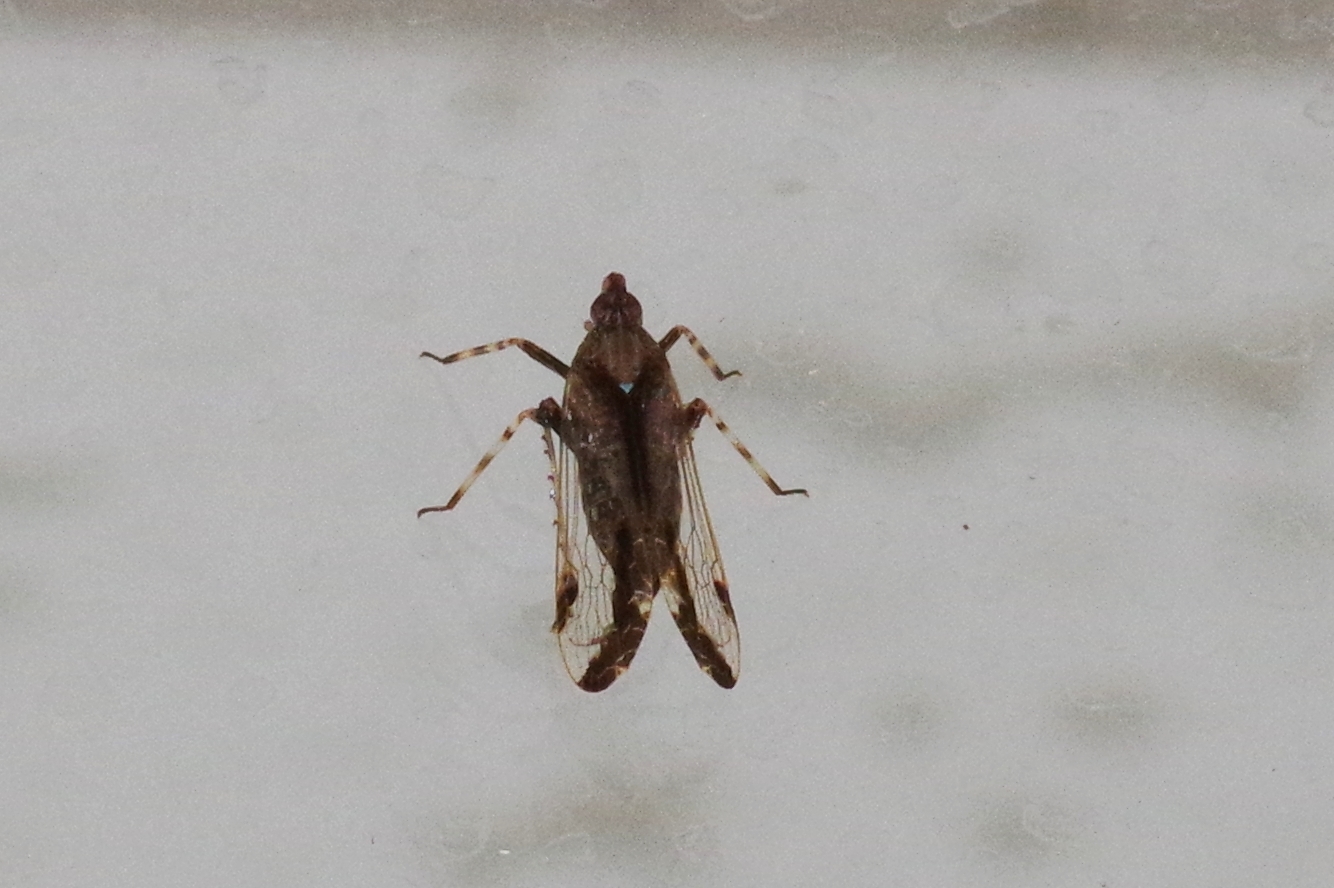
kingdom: Animalia
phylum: Arthropoda
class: Insecta
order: Hemiptera
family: Dictyopharidae
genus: Orthopagus
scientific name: Orthopagus lunulifer
